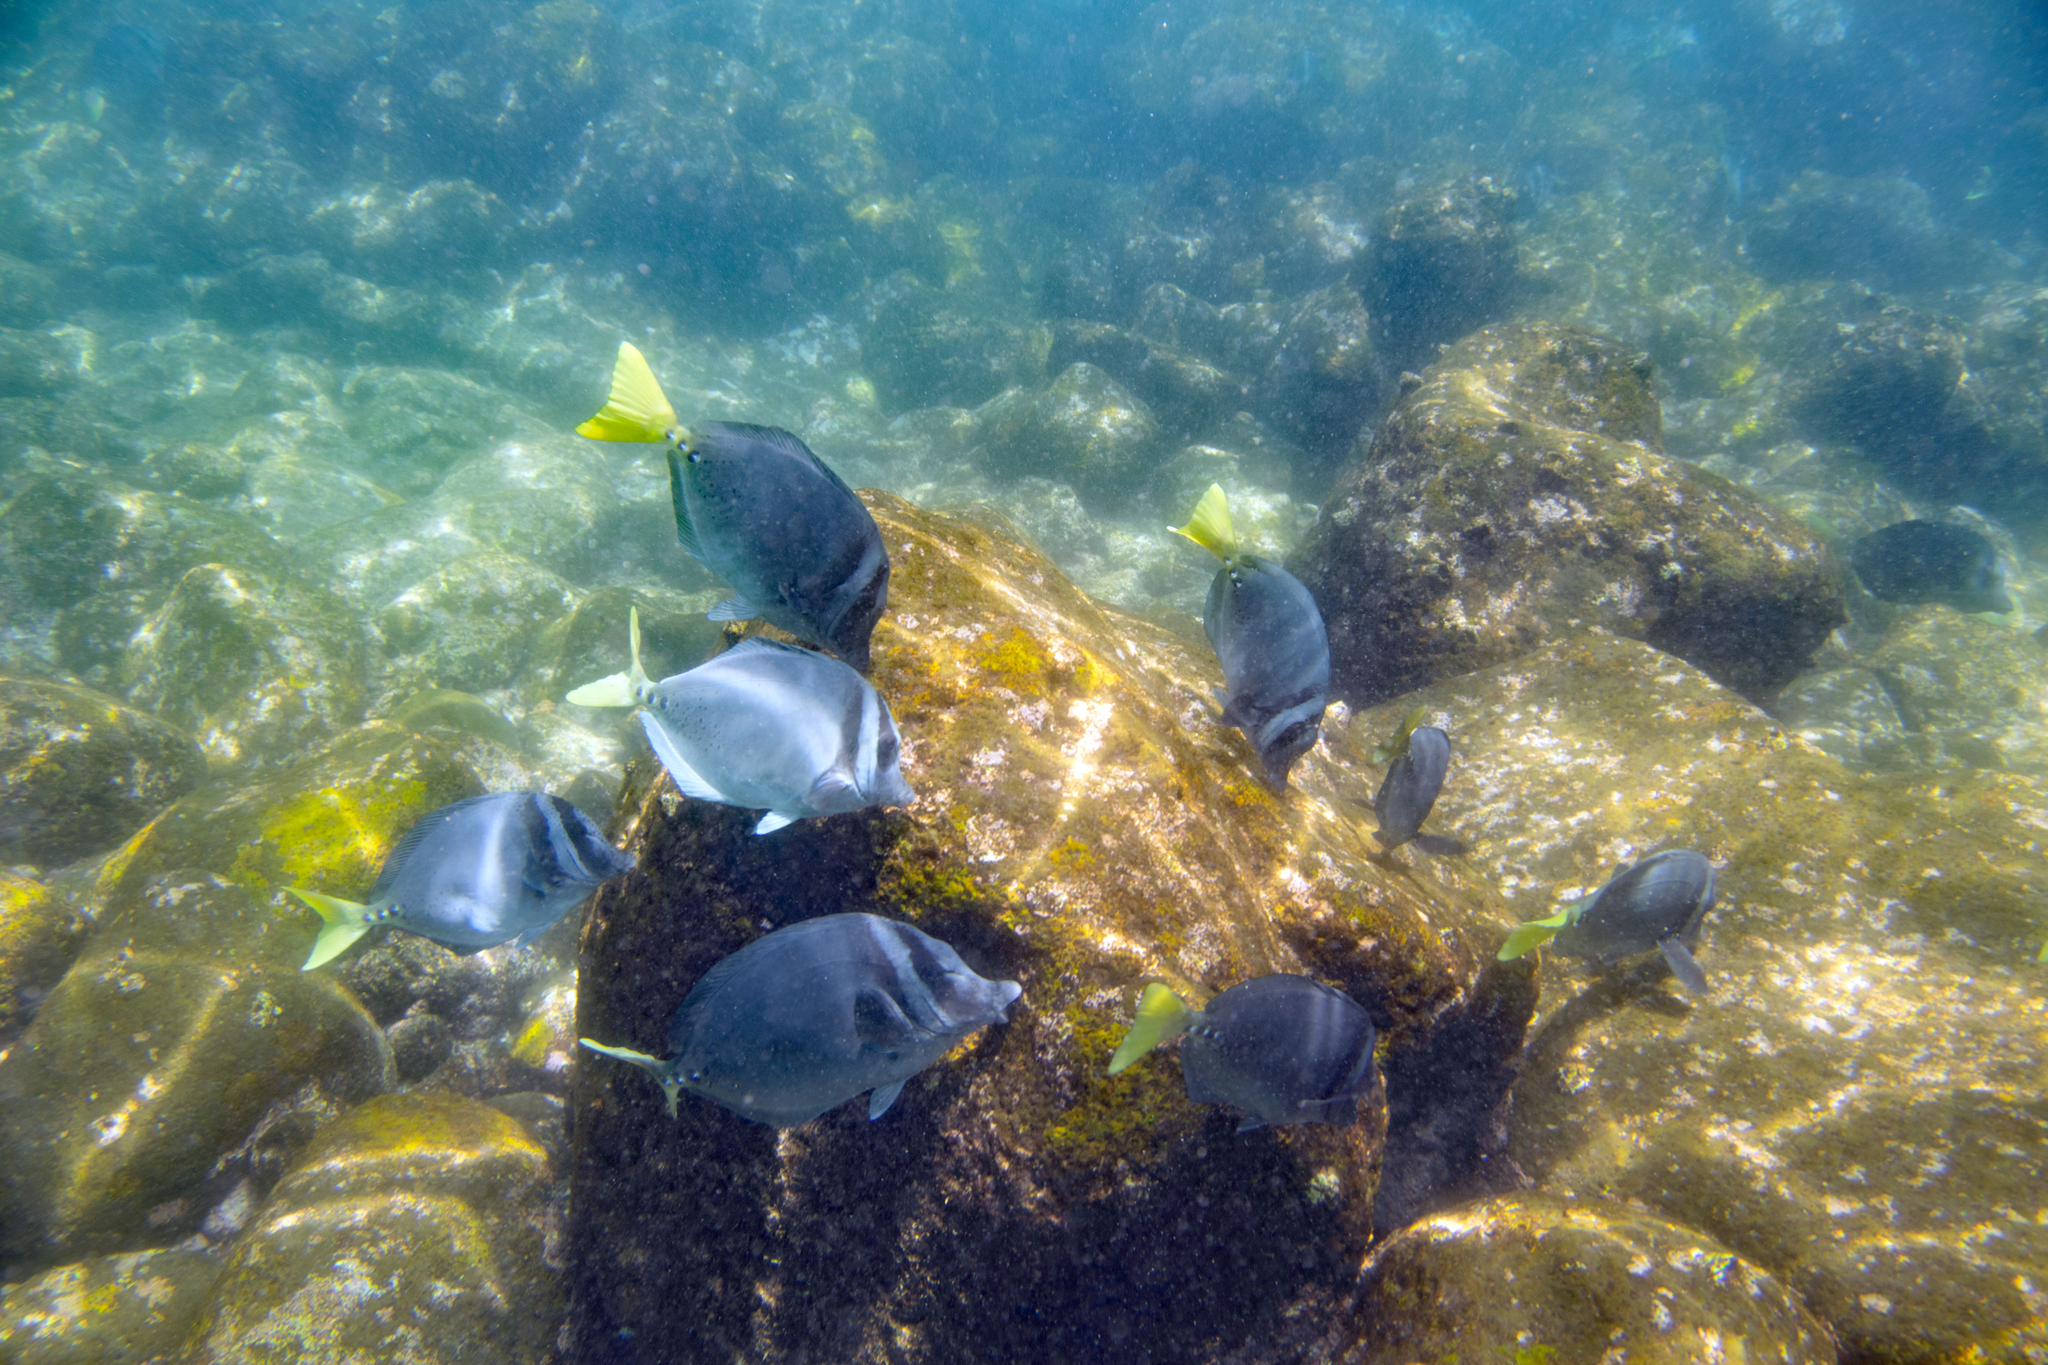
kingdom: Animalia
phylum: Chordata
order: Perciformes
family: Acanthuridae
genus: Prionurus
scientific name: Prionurus laticlavius
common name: Razor surgeonfish
